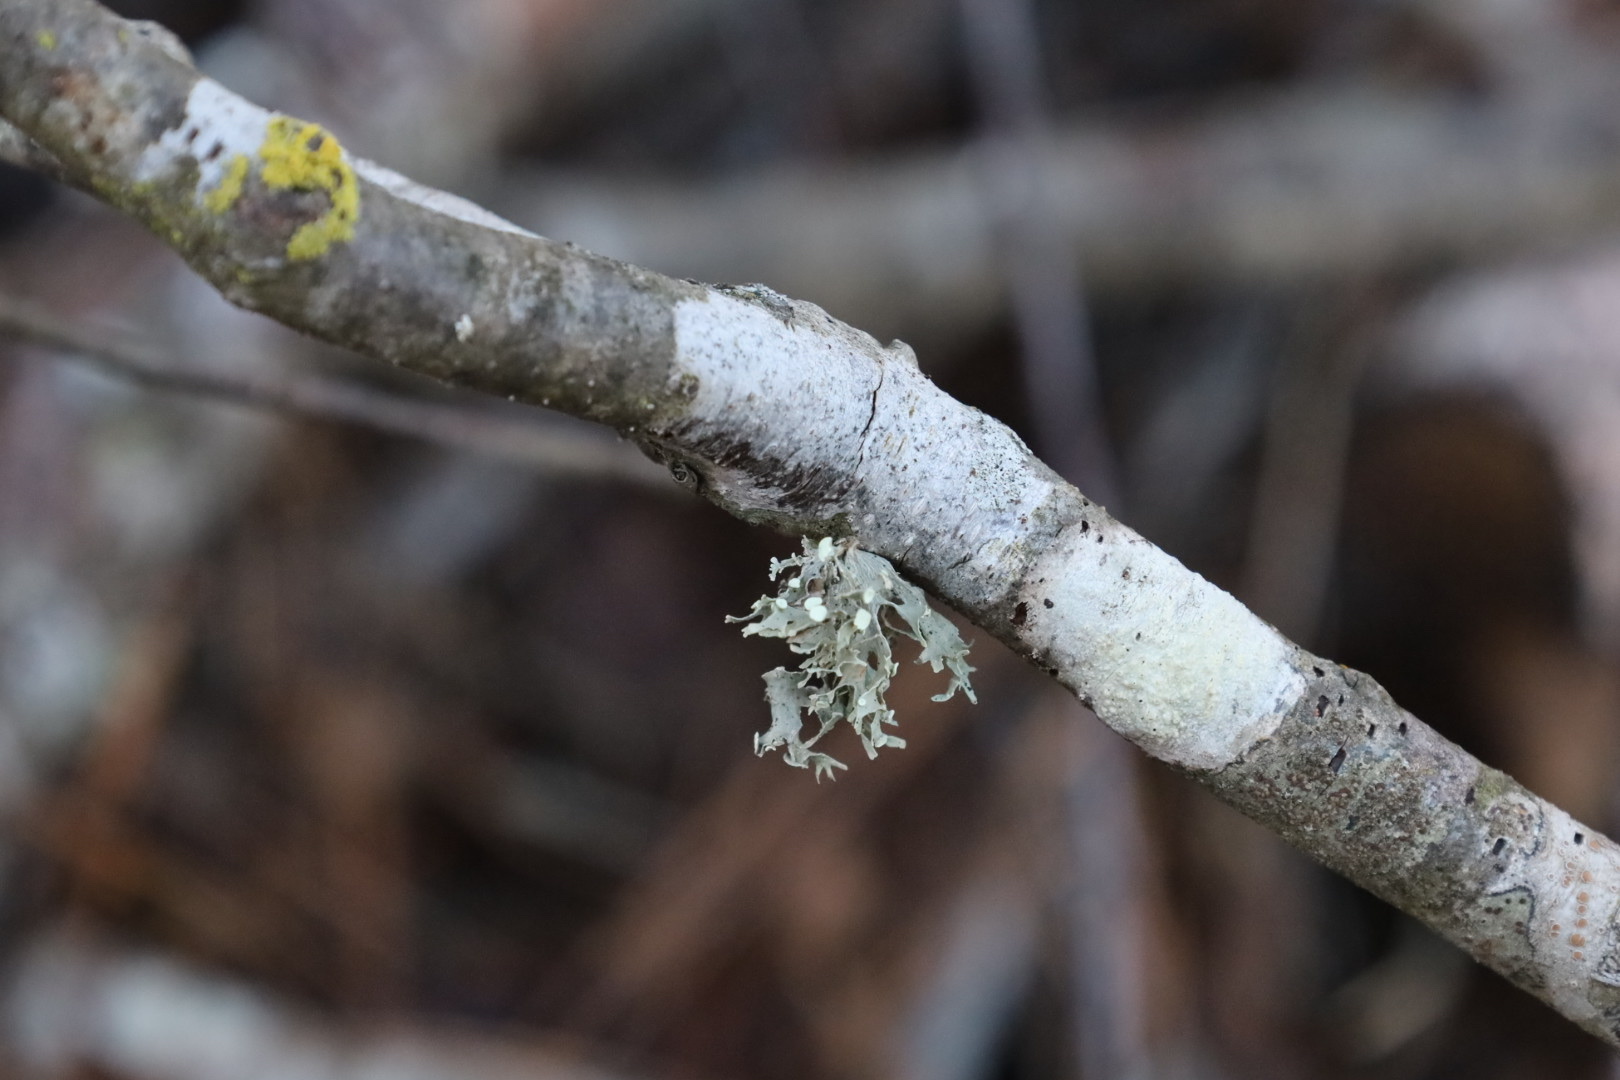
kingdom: Fungi
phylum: Ascomycota
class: Lecanoromycetes
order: Lecanorales
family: Ramalinaceae
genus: Ramalina
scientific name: Ramalina
